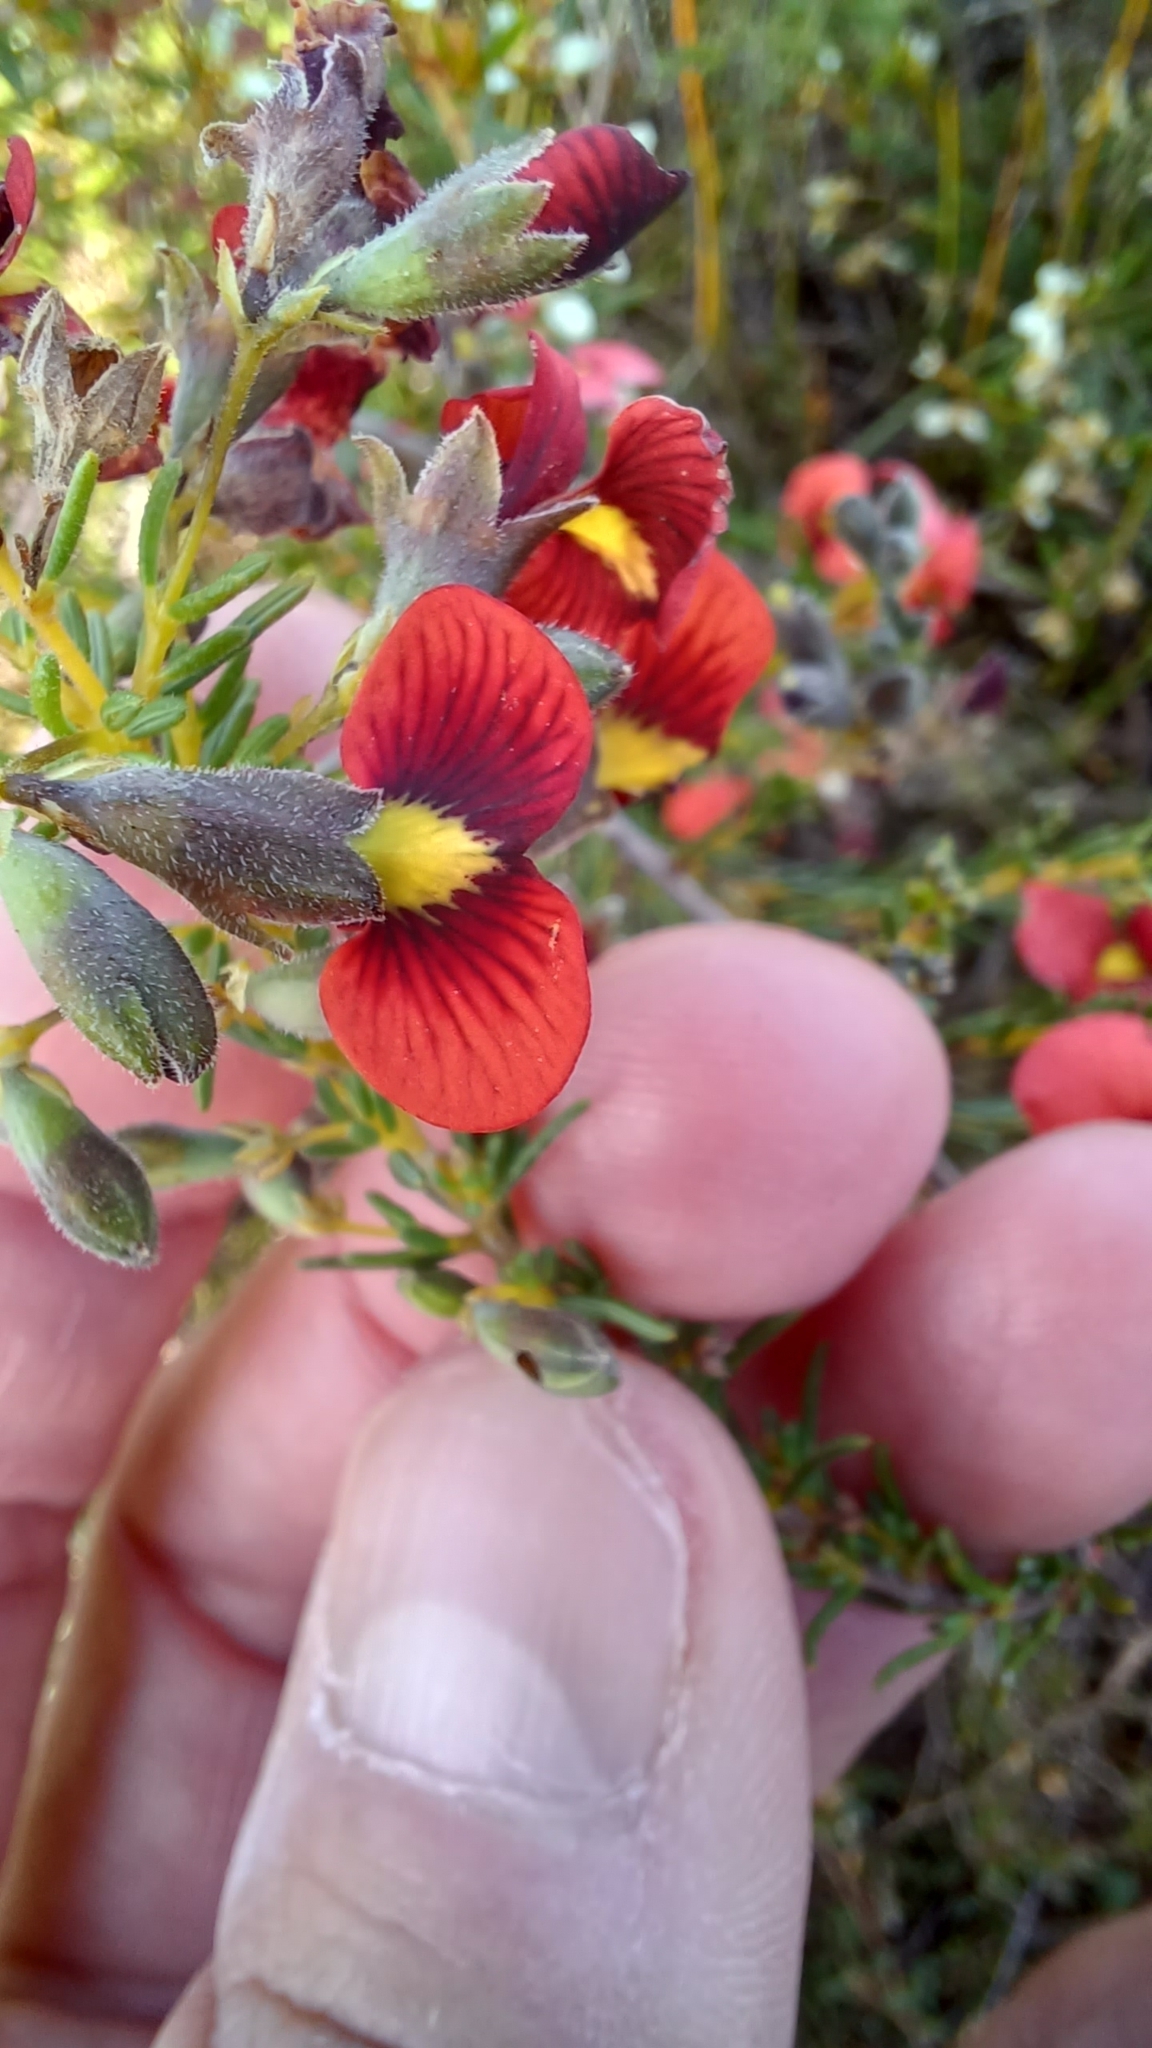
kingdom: Plantae
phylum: Tracheophyta
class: Magnoliopsida
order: Fabales
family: Fabaceae
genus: Dillwynia
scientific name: Dillwynia hispida
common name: Red parrot-pea
